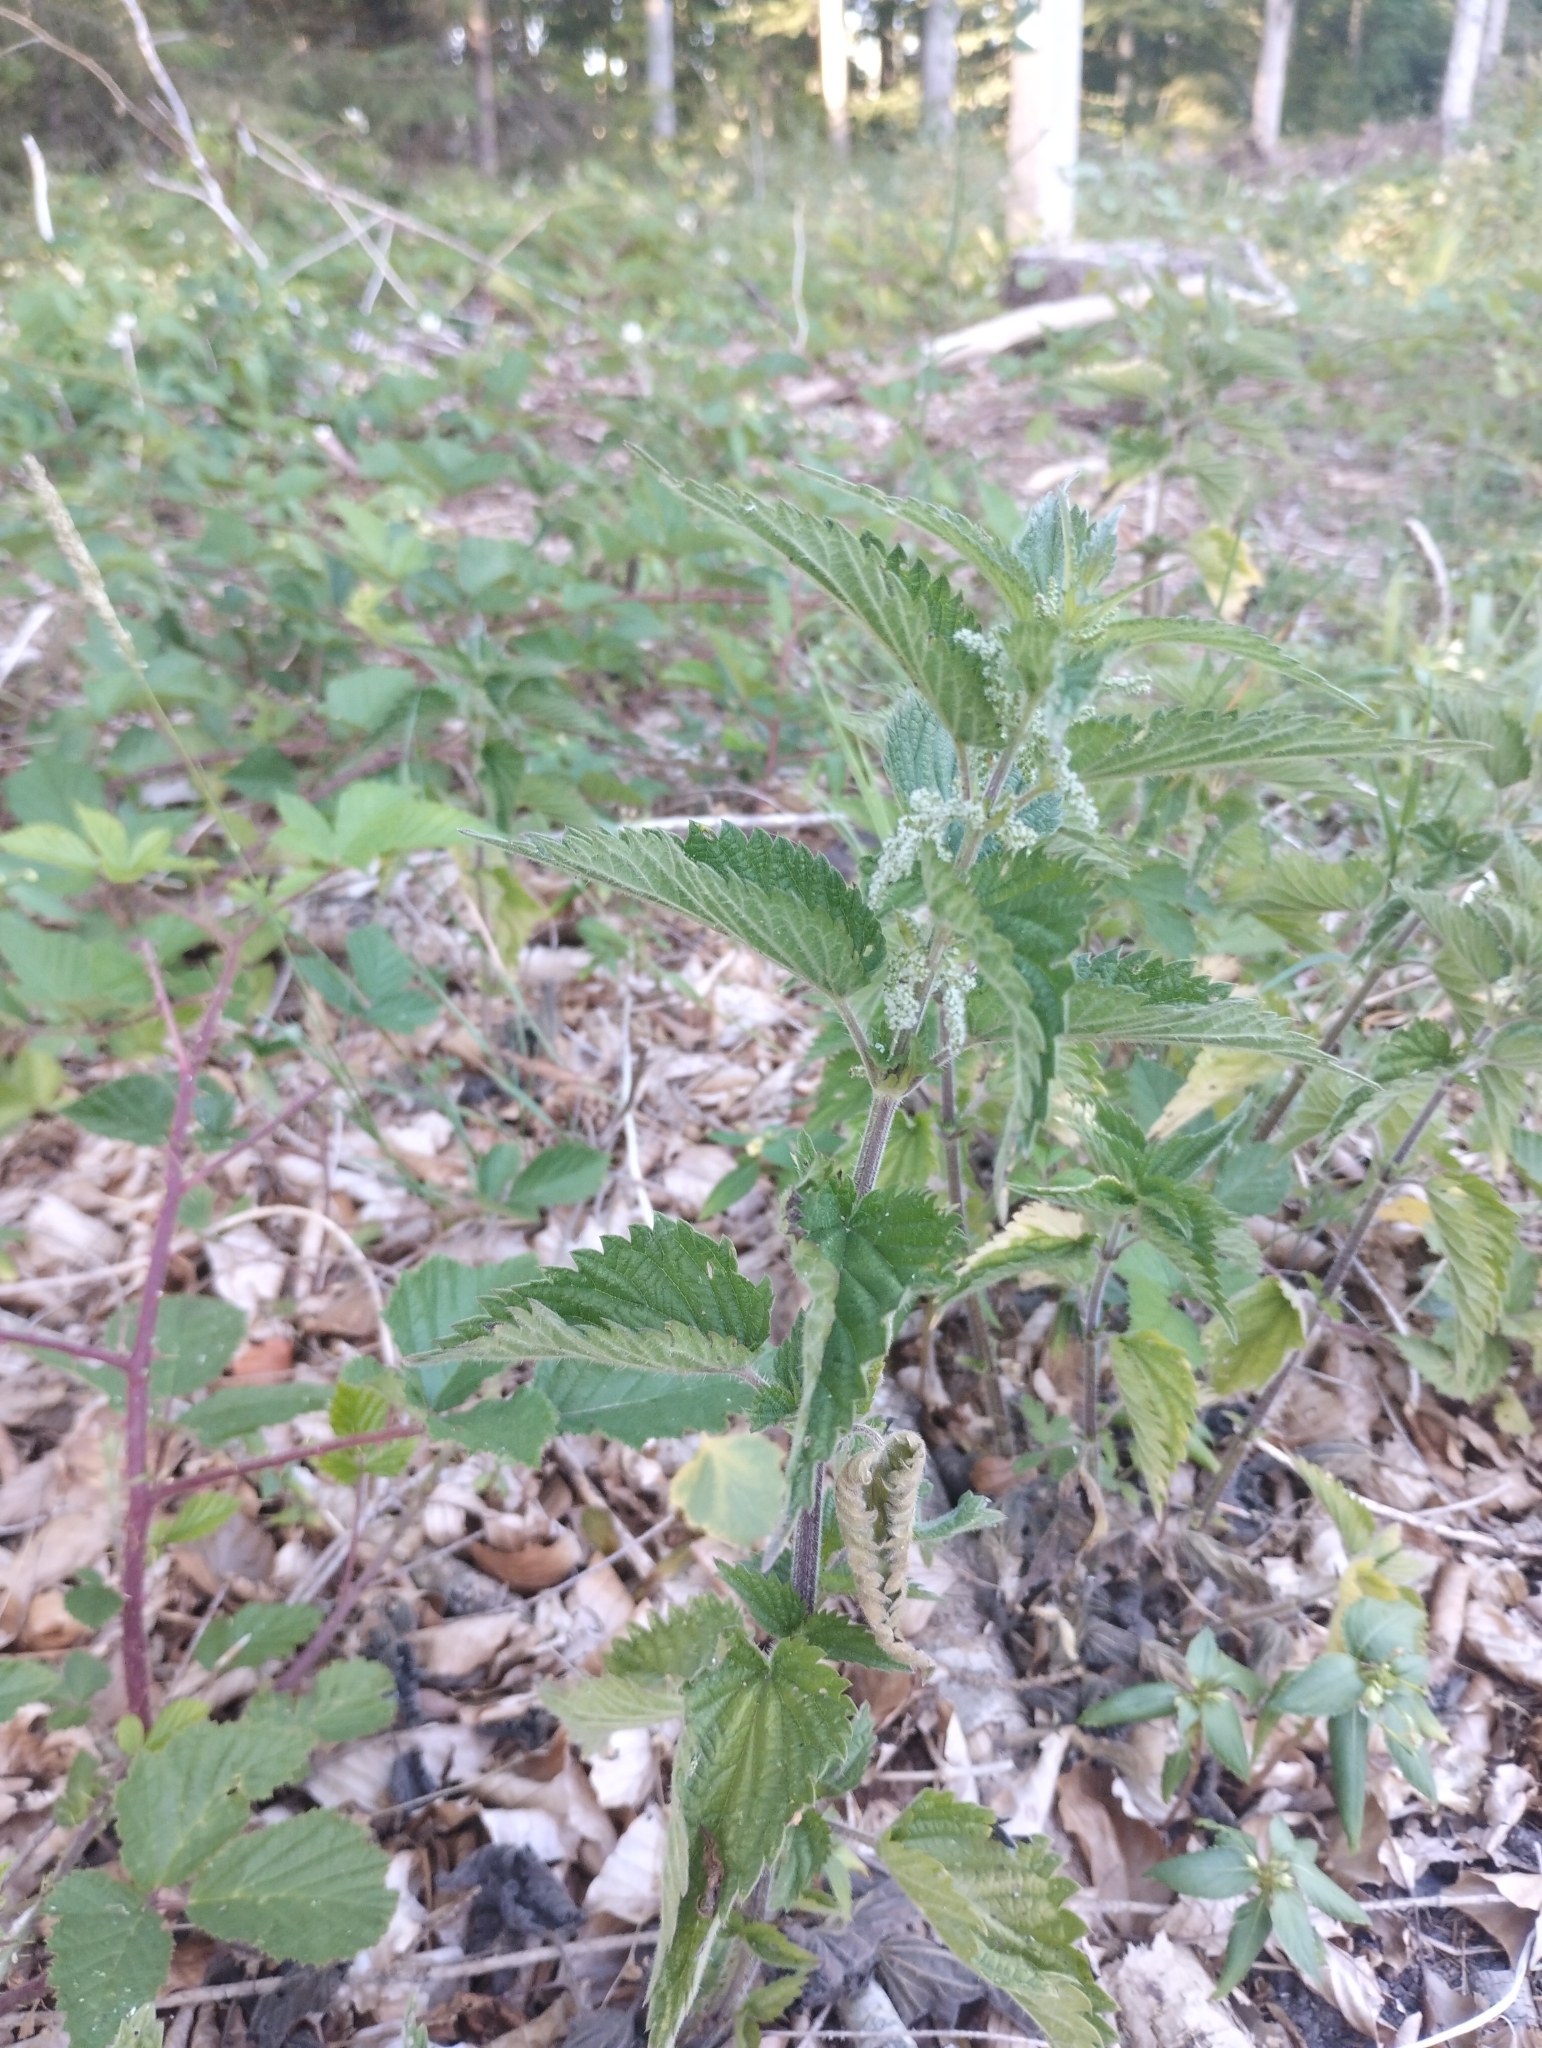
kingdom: Plantae
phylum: Tracheophyta
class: Magnoliopsida
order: Rosales
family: Urticaceae
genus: Urtica
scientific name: Urtica dioica
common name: Common nettle
